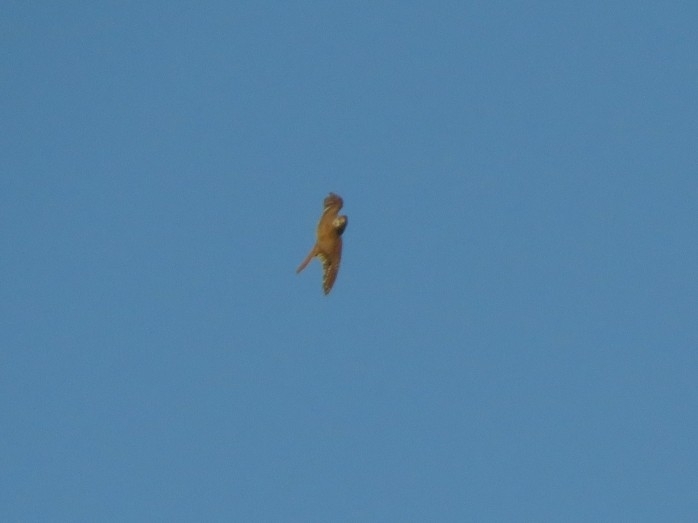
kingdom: Animalia
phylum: Chordata
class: Aves
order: Falconiformes
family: Falconidae
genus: Falco
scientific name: Falco sparverius
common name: American kestrel
